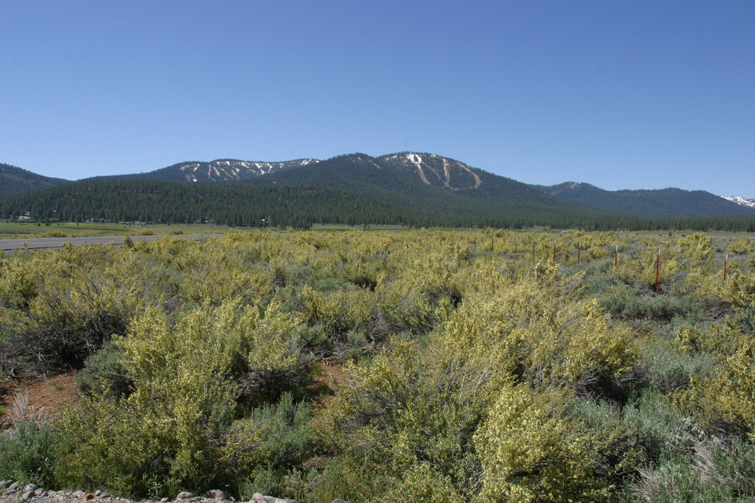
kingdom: Plantae
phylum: Tracheophyta
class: Magnoliopsida
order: Rosales
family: Rosaceae
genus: Purshia
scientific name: Purshia tridentata
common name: Antelope bitterbrush
